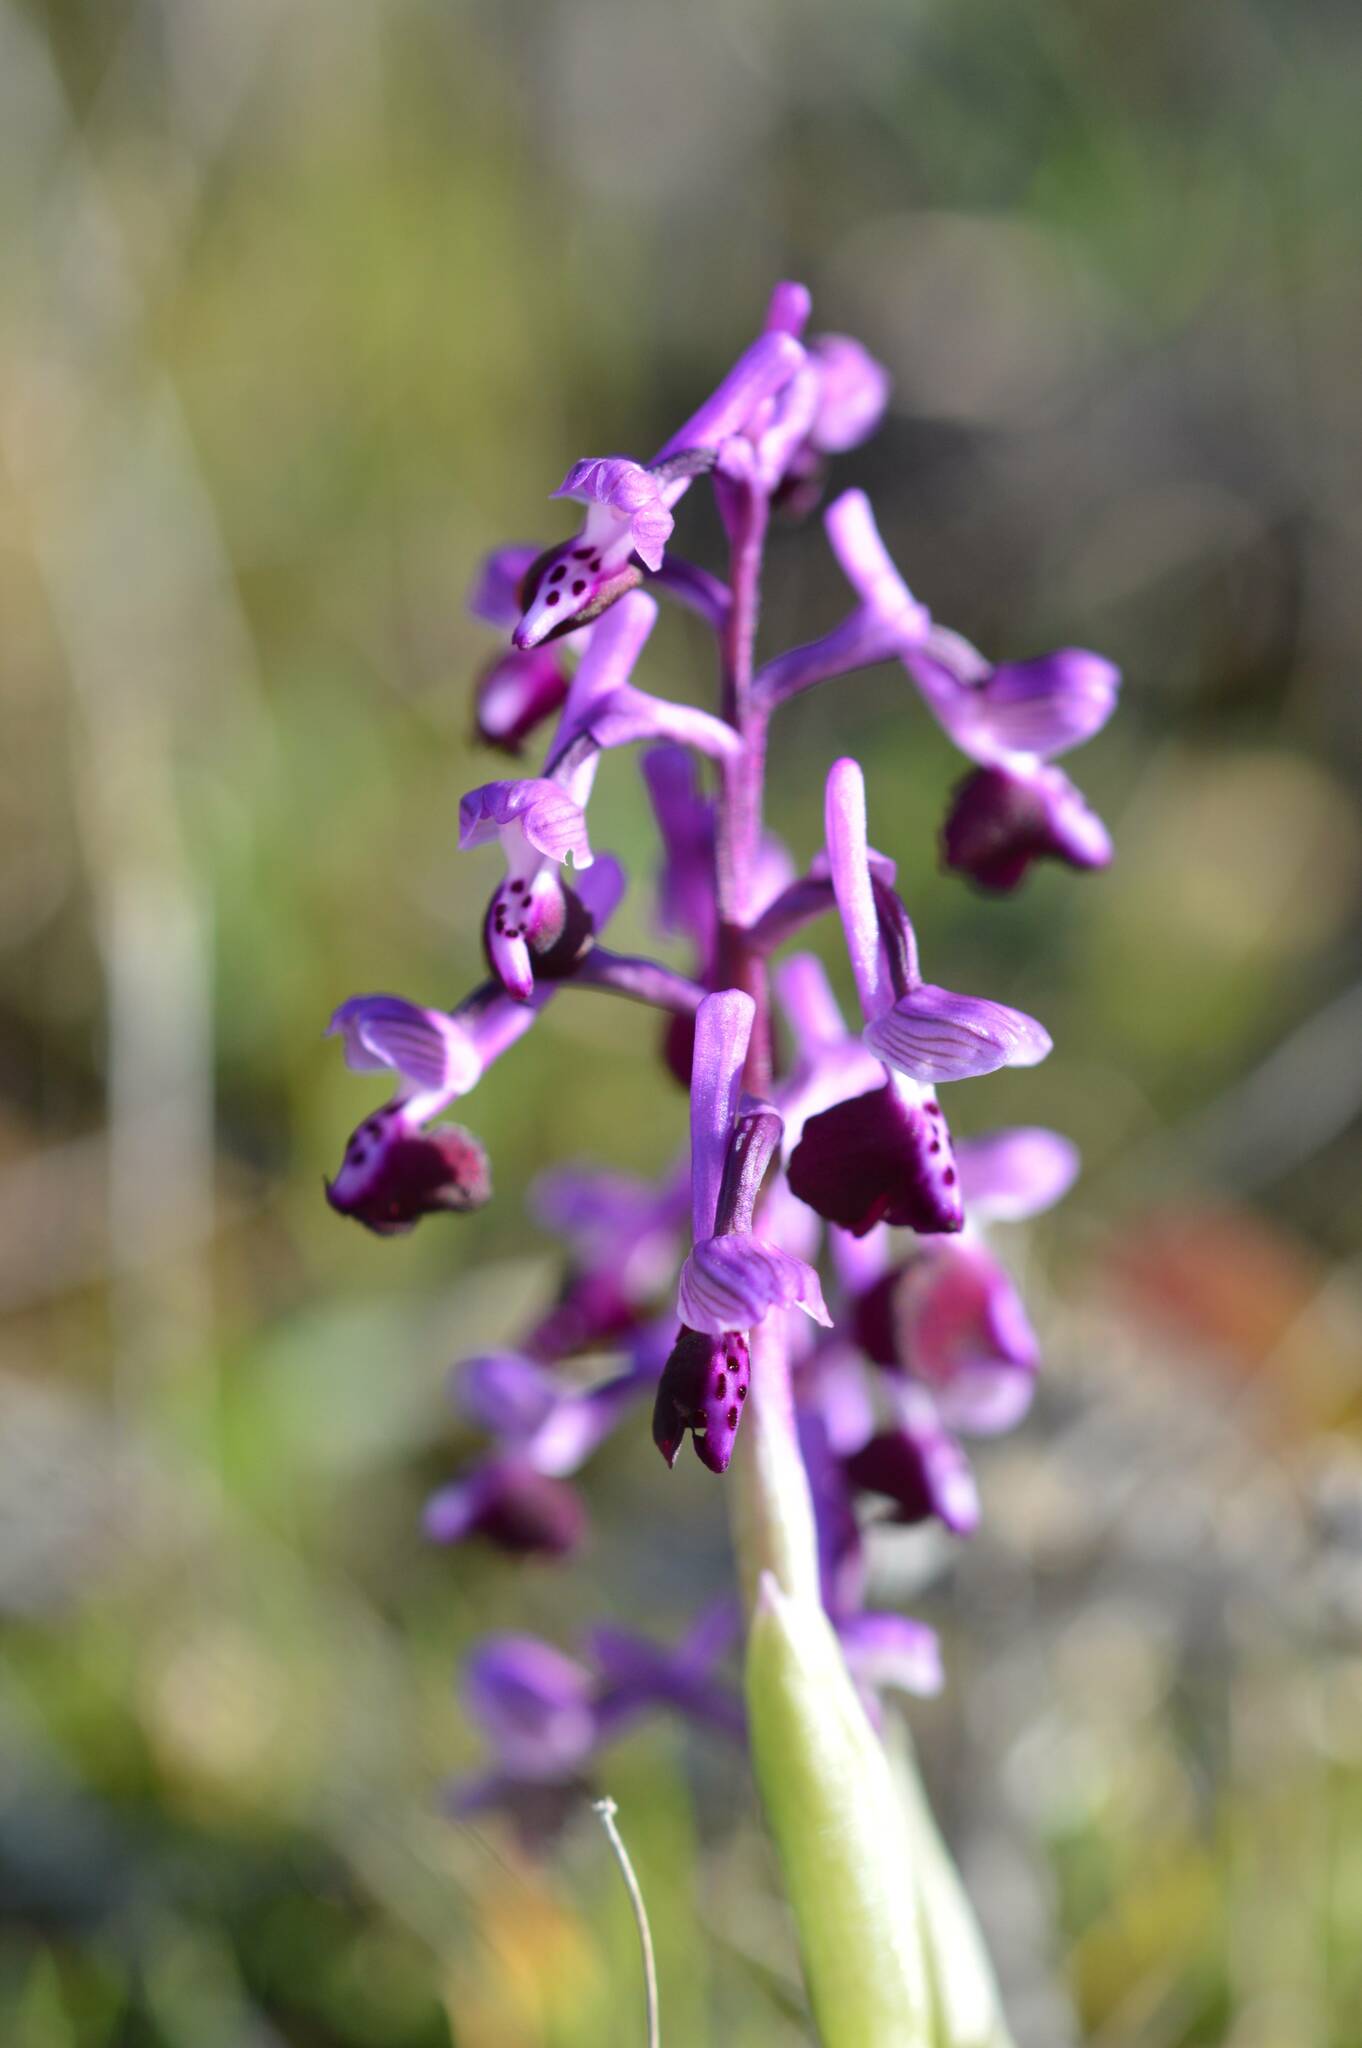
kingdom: Plantae
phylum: Tracheophyta
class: Liliopsida
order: Asparagales
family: Orchidaceae
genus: Anacamptis
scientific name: Anacamptis morio
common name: Green-winged orchid
